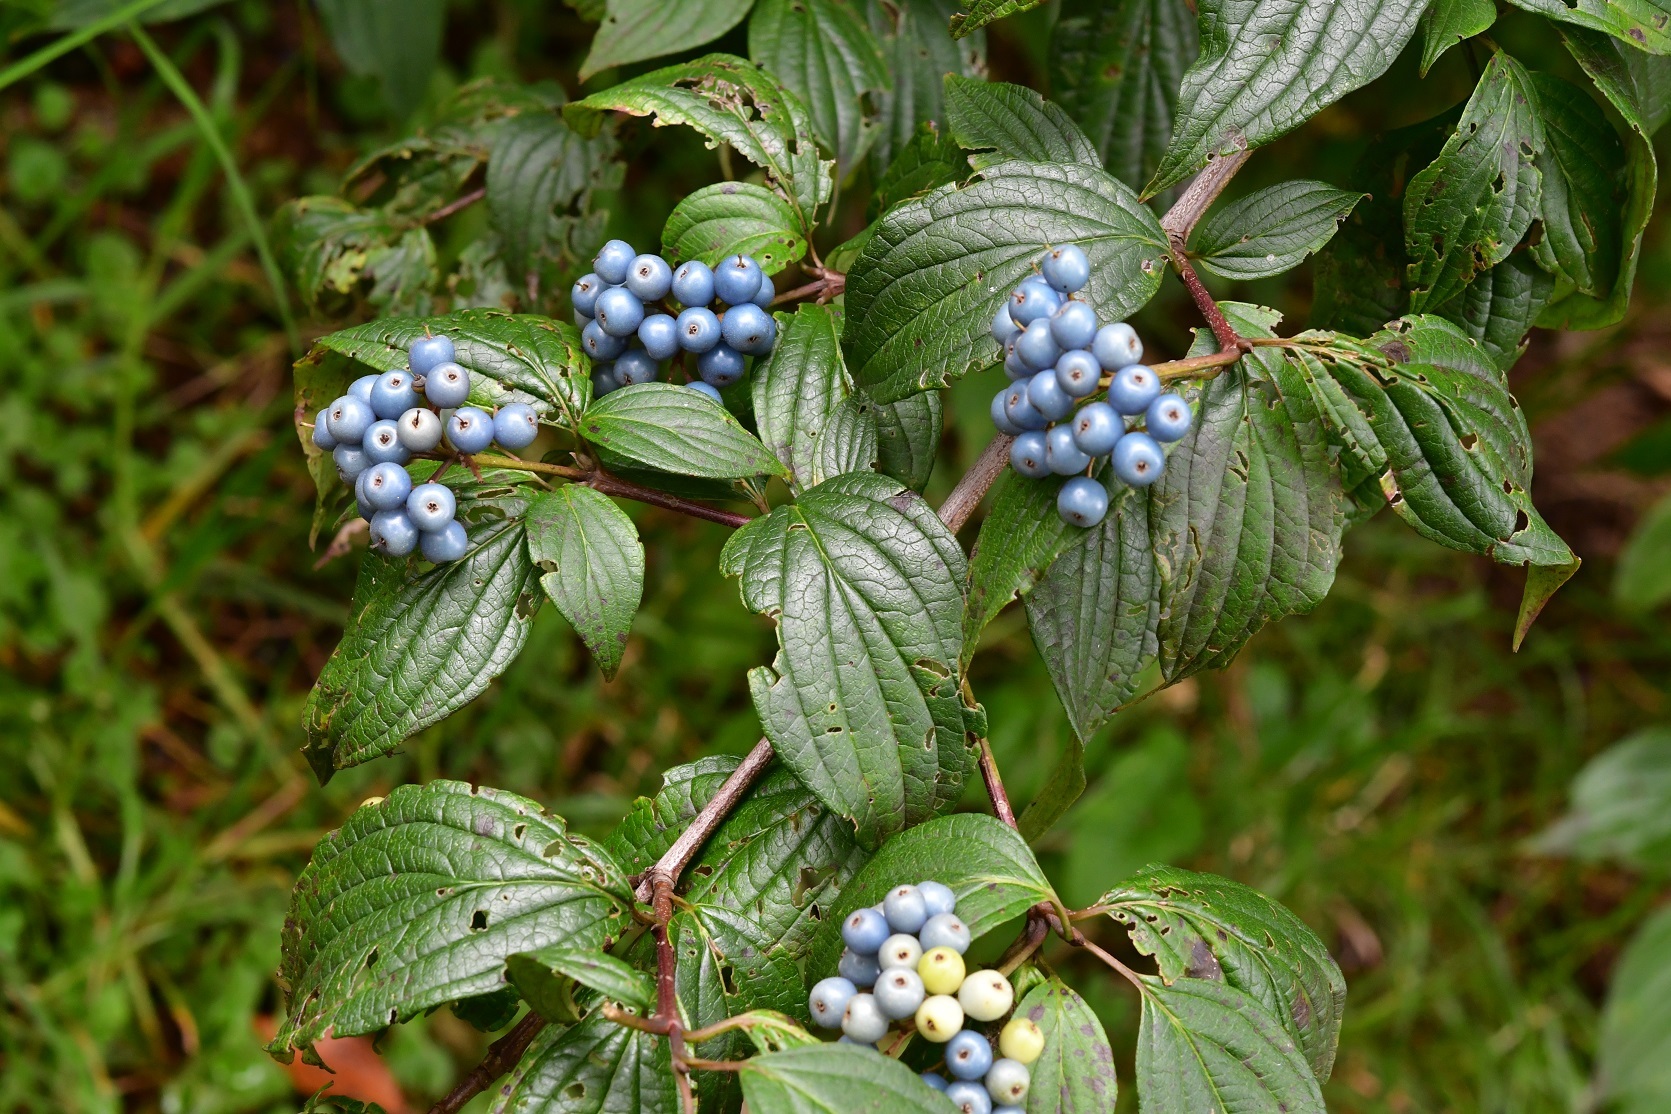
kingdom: Plantae
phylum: Tracheophyta
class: Magnoliopsida
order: Cornales
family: Cornaceae
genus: Cornus
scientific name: Cornus excelsa
